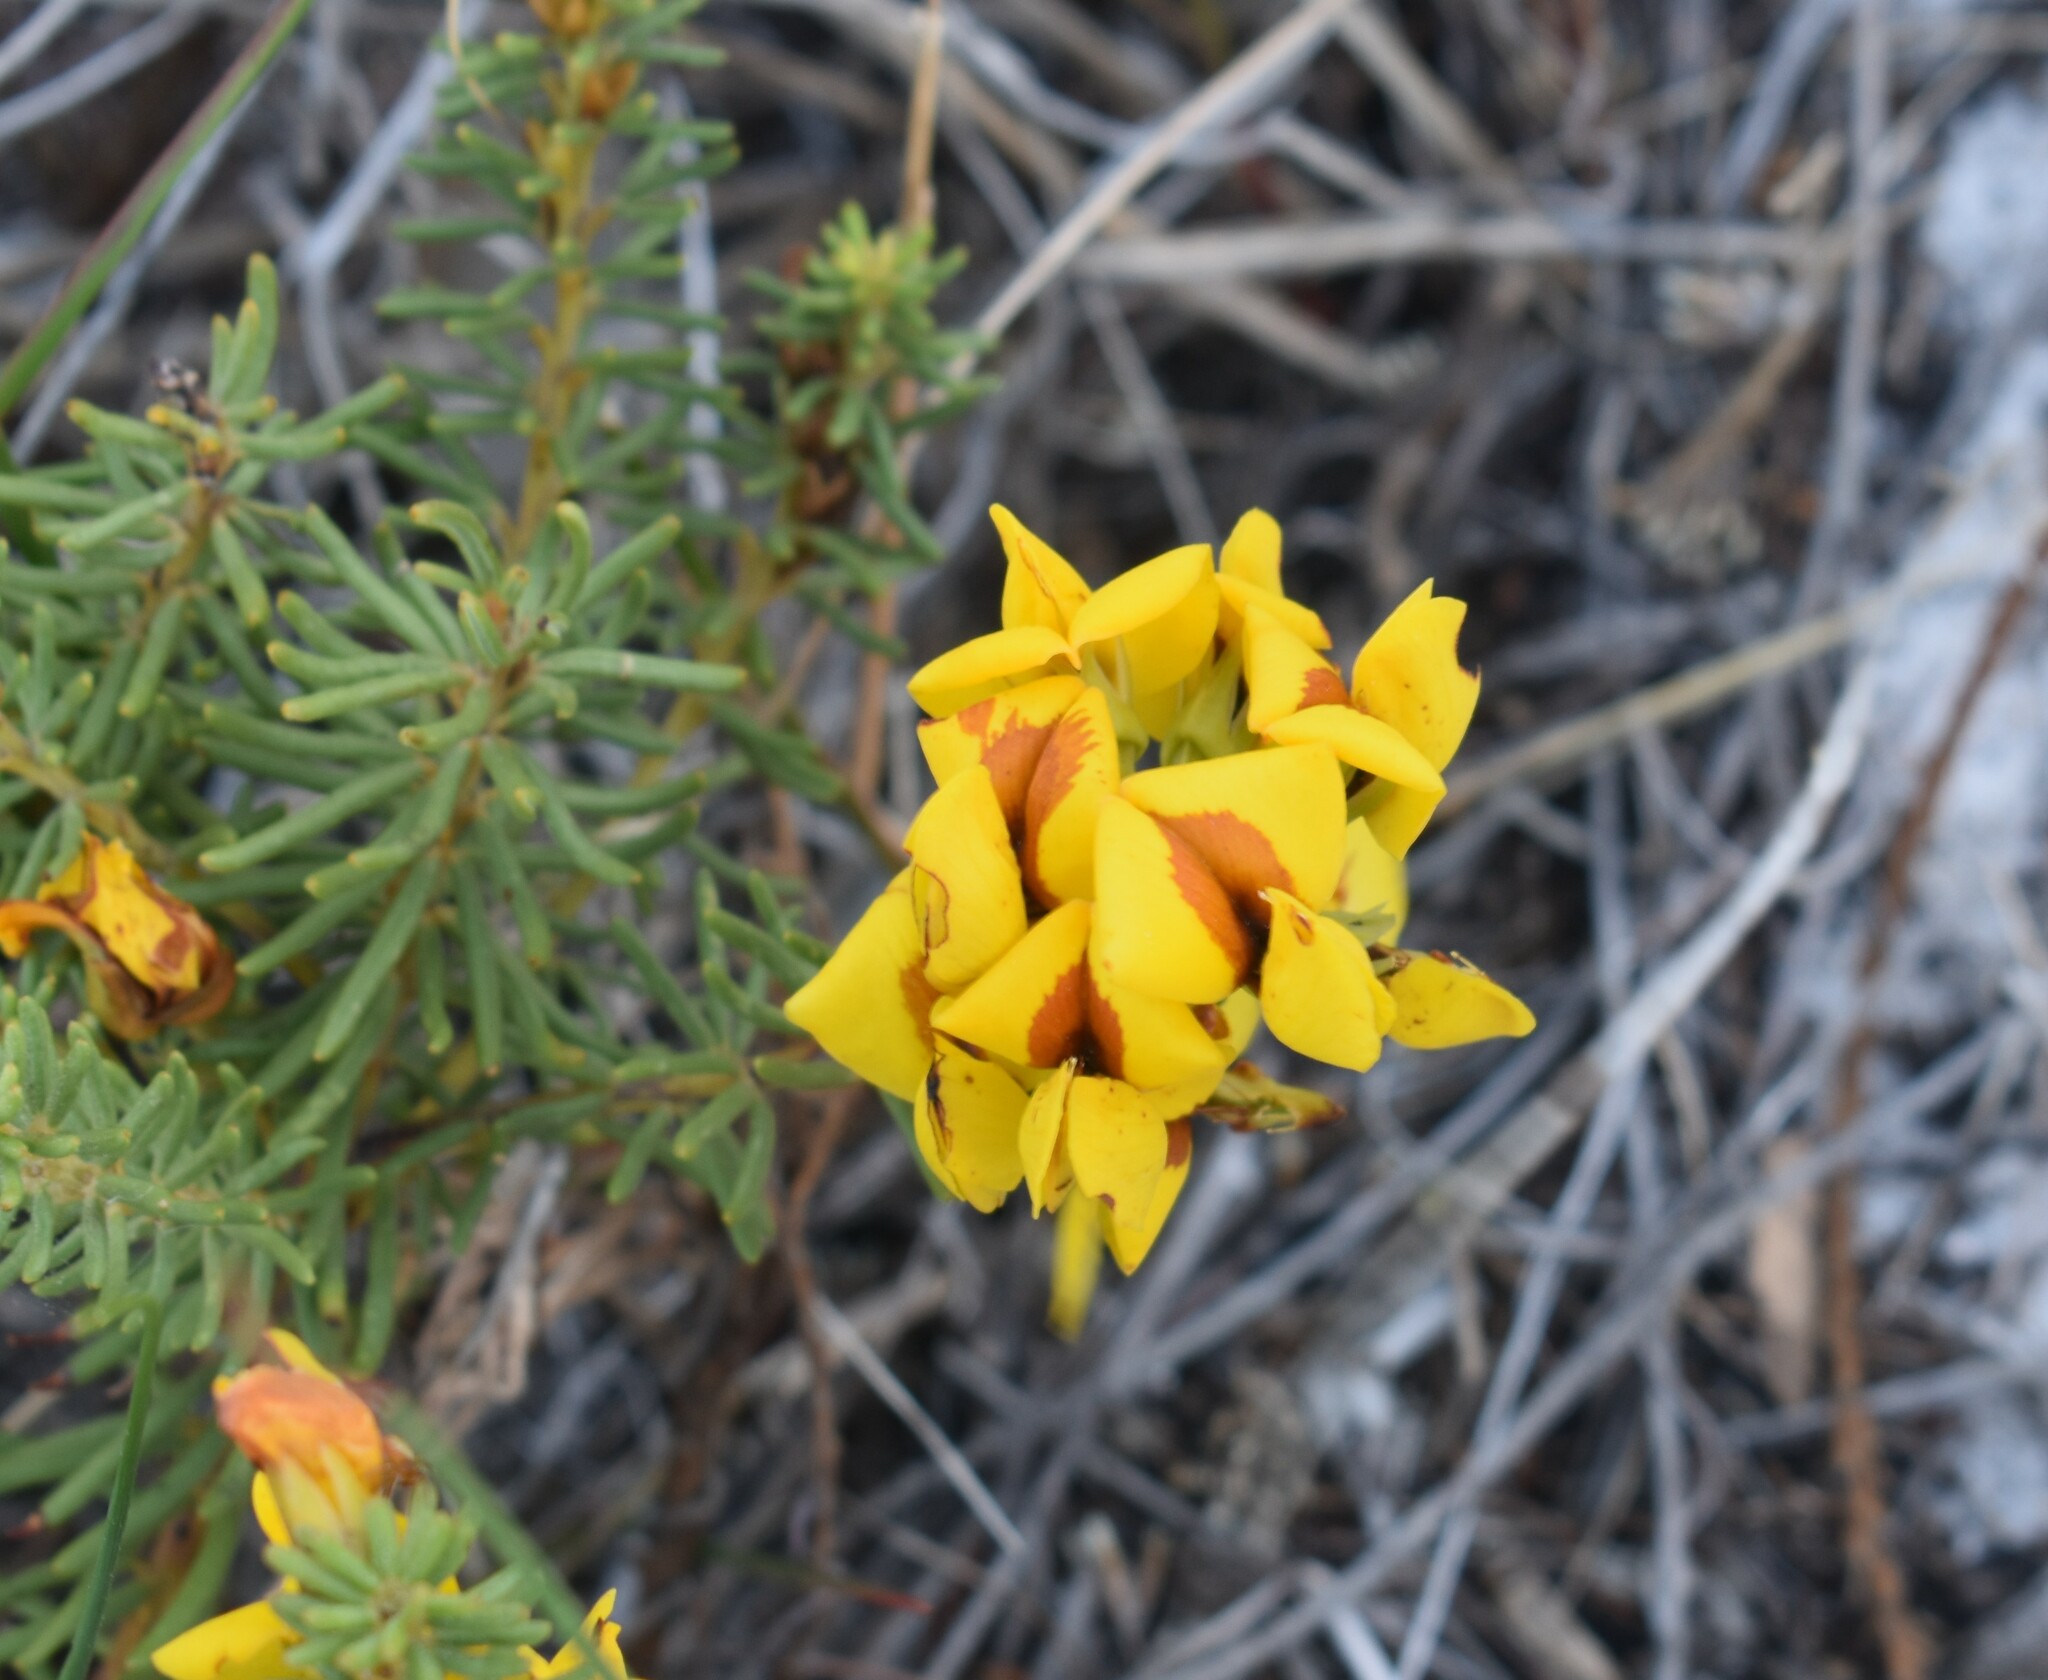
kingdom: Plantae
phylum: Tracheophyta
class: Magnoliopsida
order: Fabales
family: Fabaceae
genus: Cyclopia
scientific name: Cyclopia genistoides
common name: Honeybush tea
